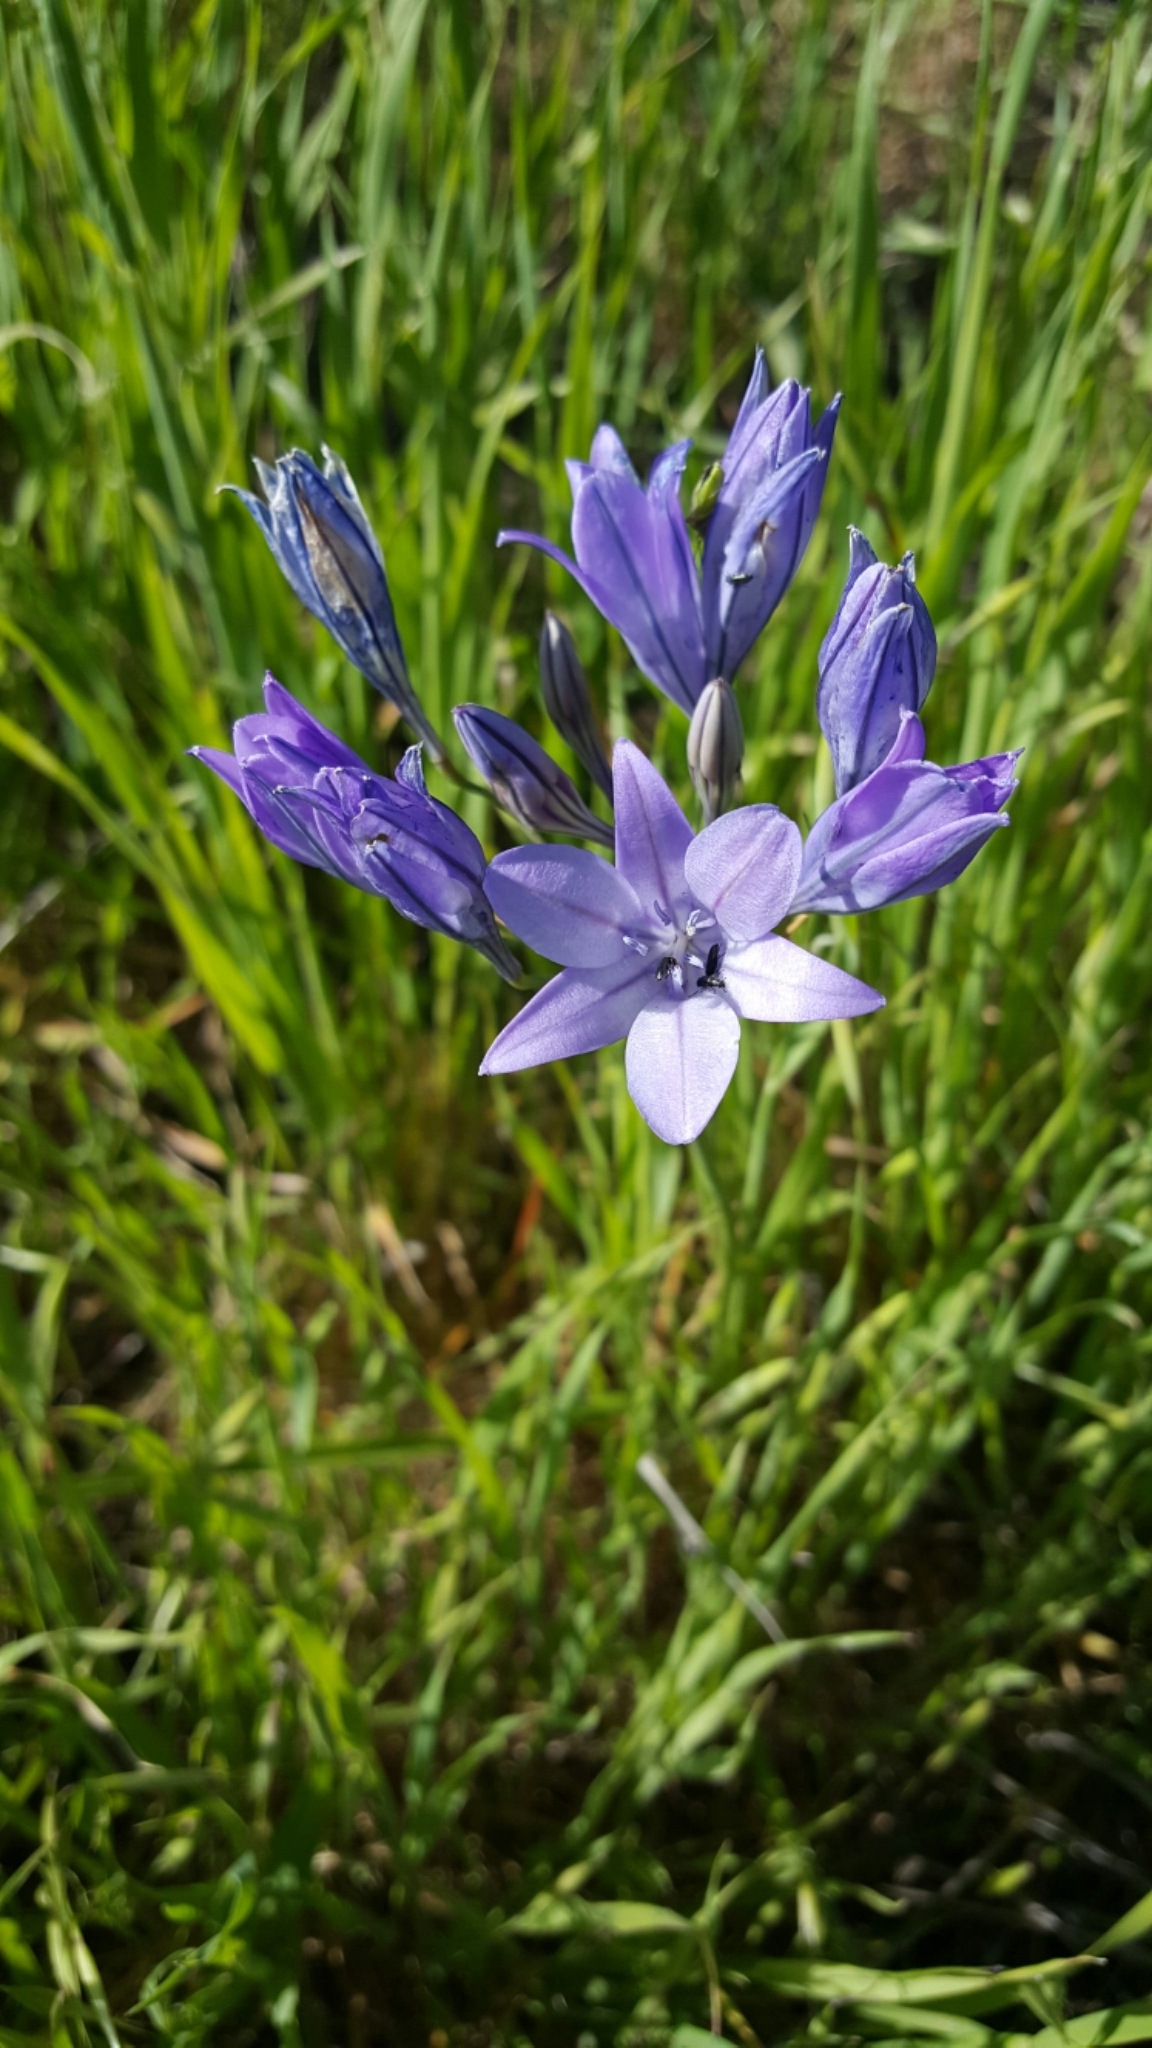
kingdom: Plantae
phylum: Tracheophyta
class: Liliopsida
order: Asparagales
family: Asparagaceae
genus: Triteleia
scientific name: Triteleia laxa
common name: Triplet-lily
